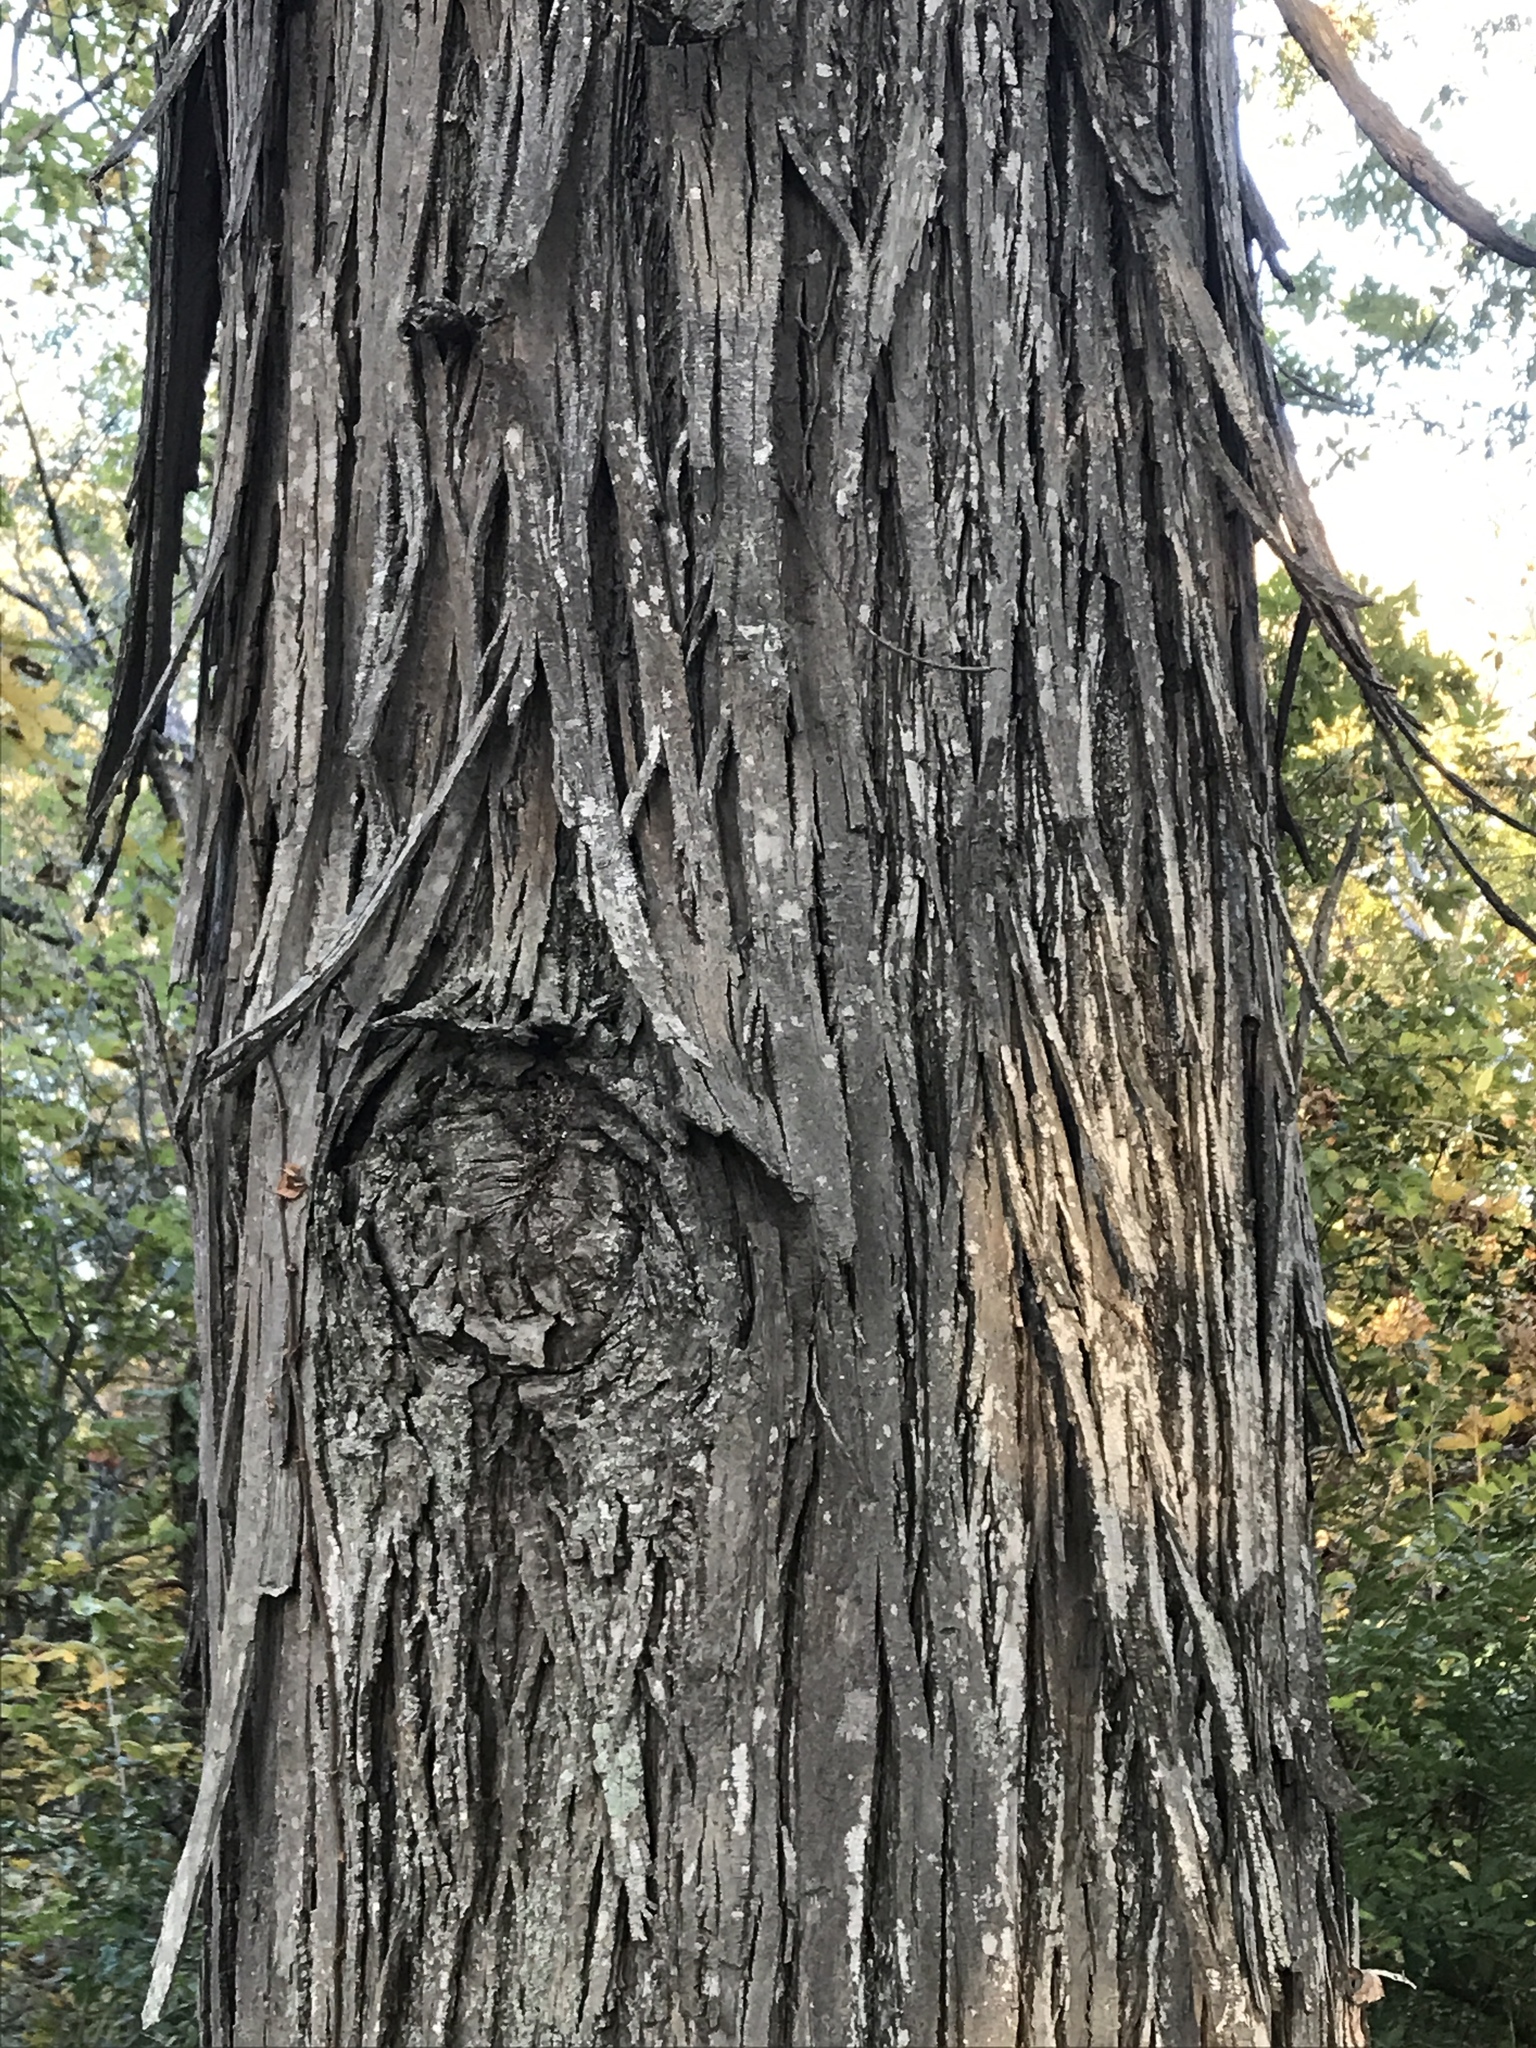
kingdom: Plantae
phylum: Tracheophyta
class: Magnoliopsida
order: Fagales
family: Juglandaceae
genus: Carya
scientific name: Carya ovata
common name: Shagbark hickory
